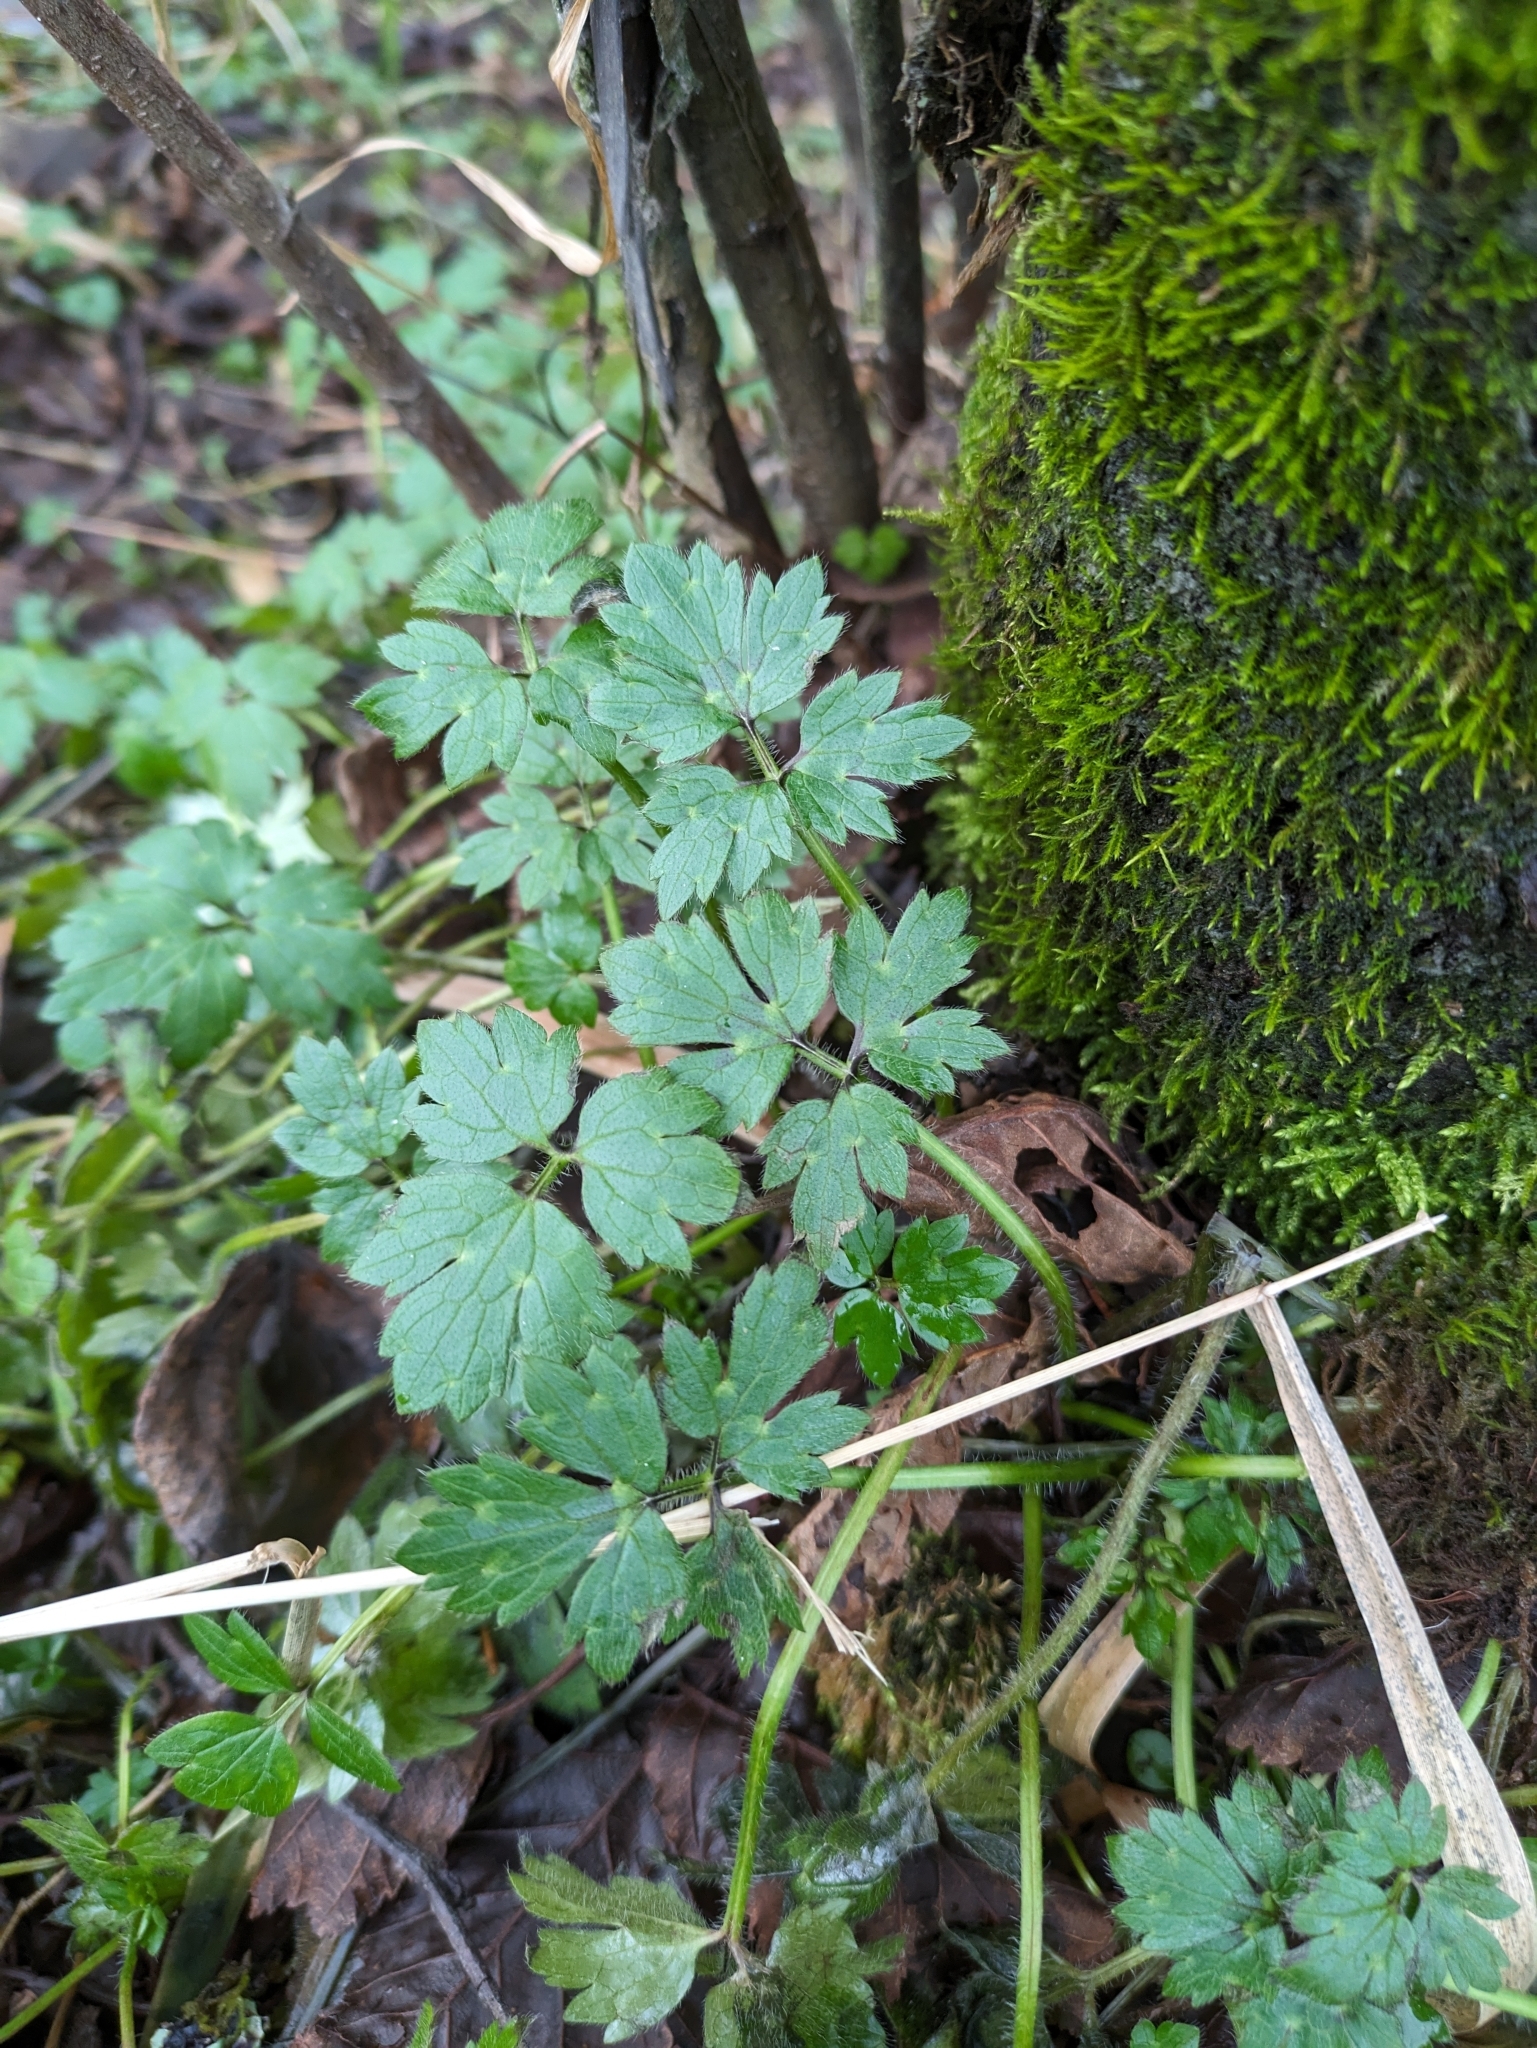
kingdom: Plantae
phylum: Tracheophyta
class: Magnoliopsida
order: Ranunculales
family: Ranunculaceae
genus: Ranunculus
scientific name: Ranunculus repens
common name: Creeping buttercup
